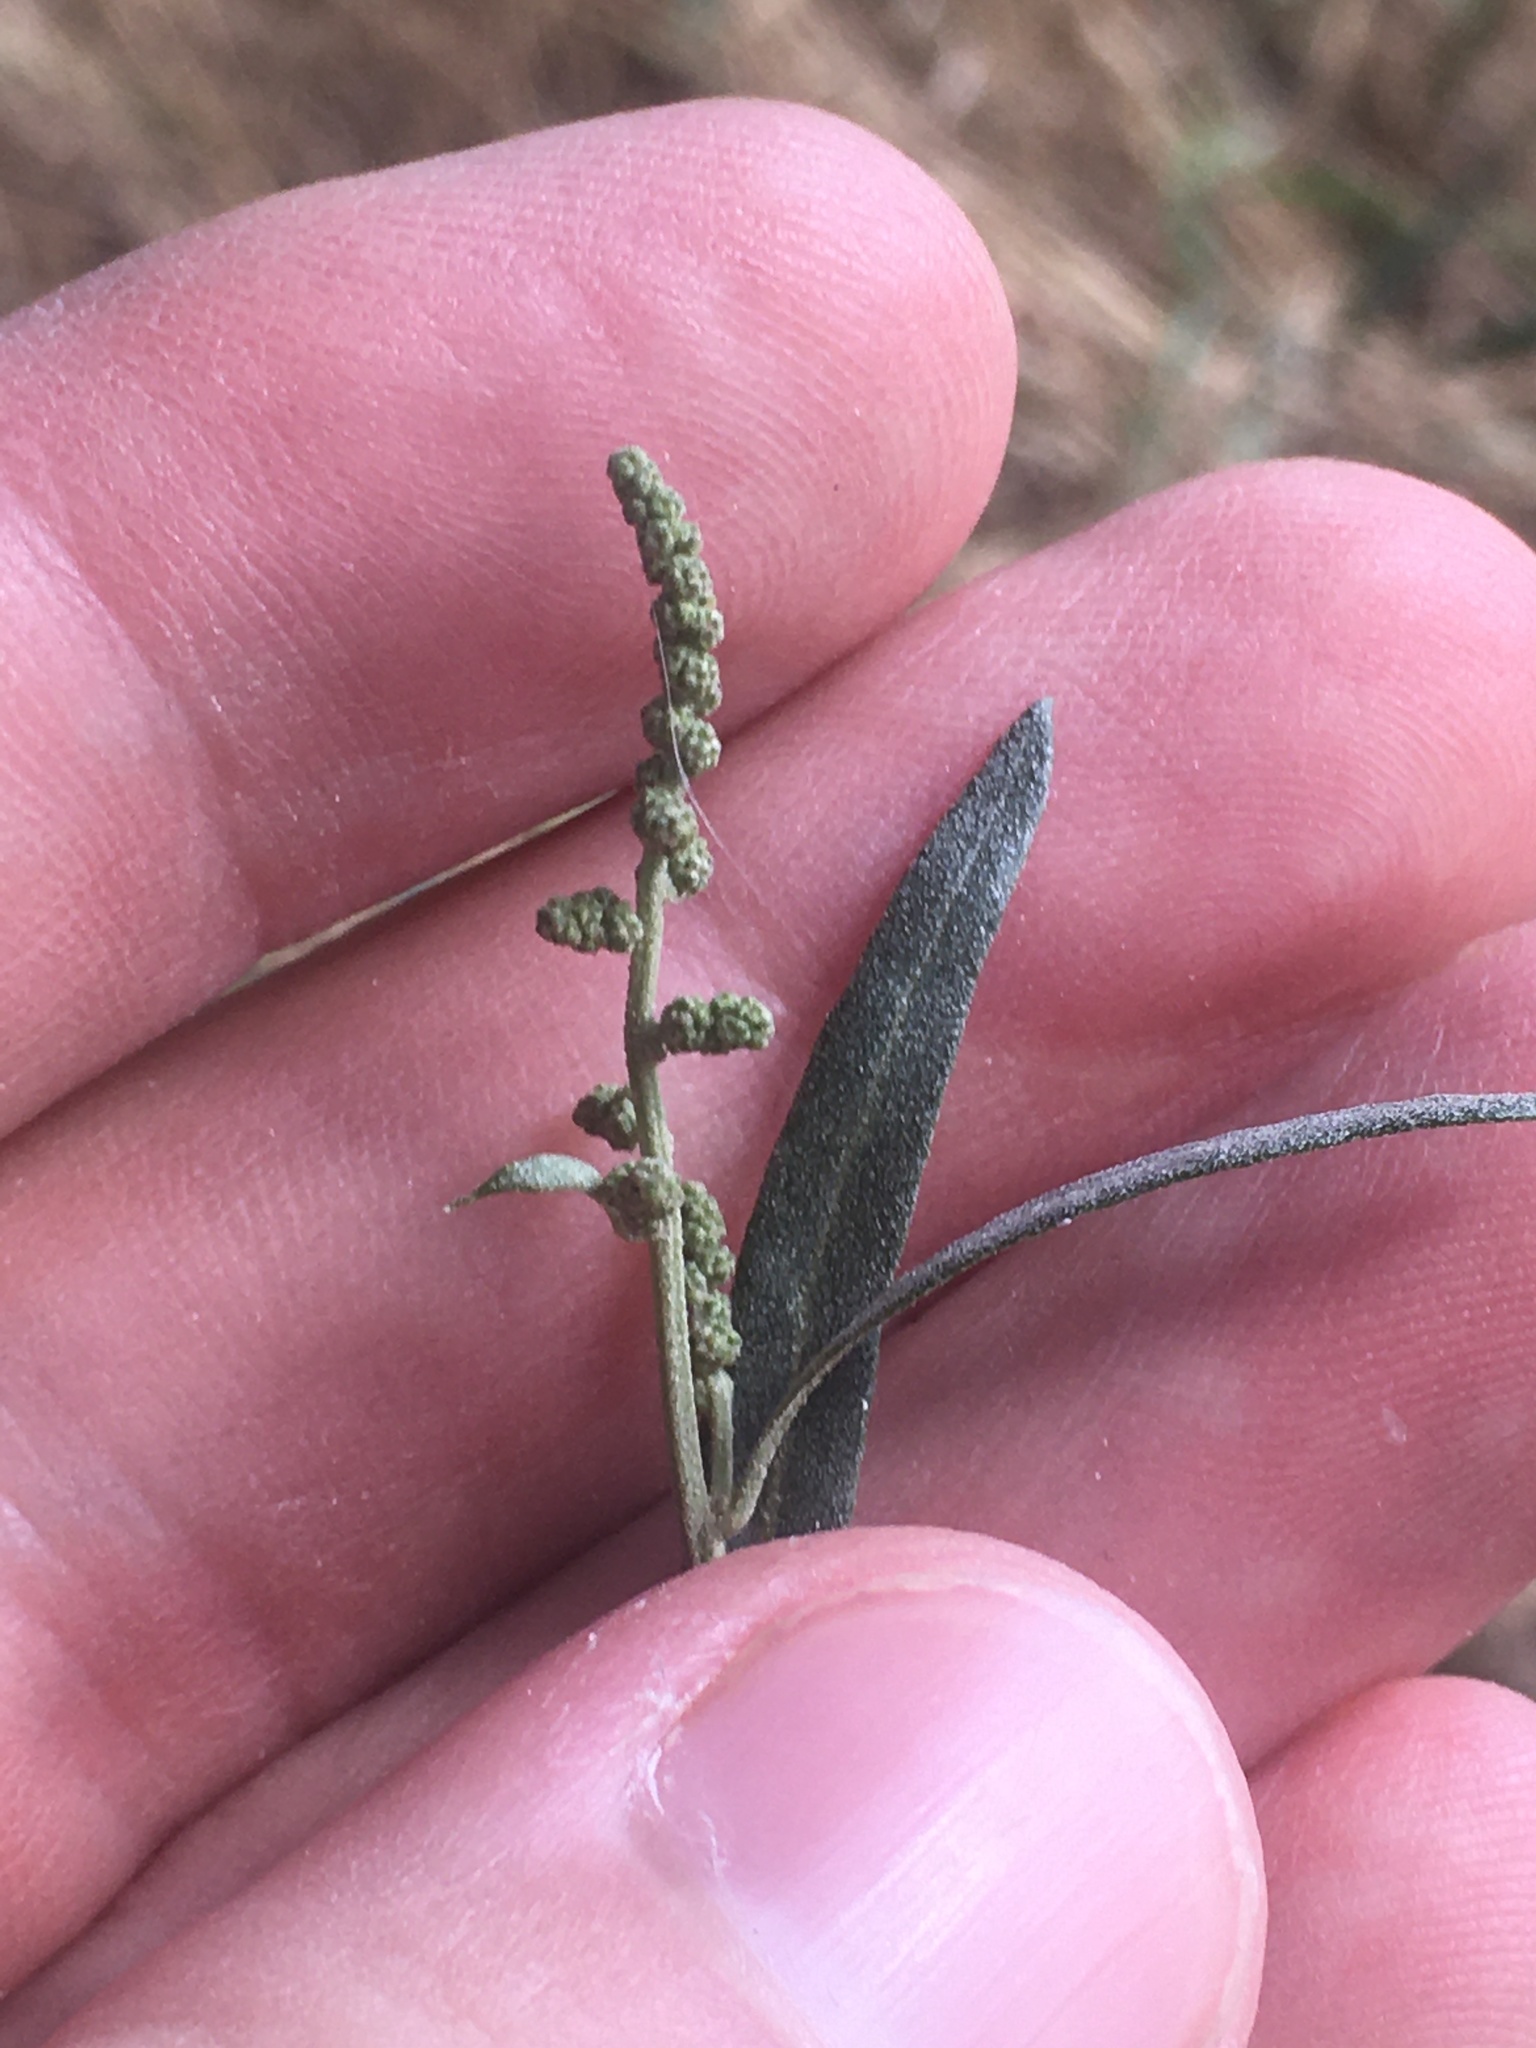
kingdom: Plantae
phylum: Tracheophyta
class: Magnoliopsida
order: Caryophyllales
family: Amaranthaceae
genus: Atriplex
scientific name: Atriplex patula
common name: Common orache
